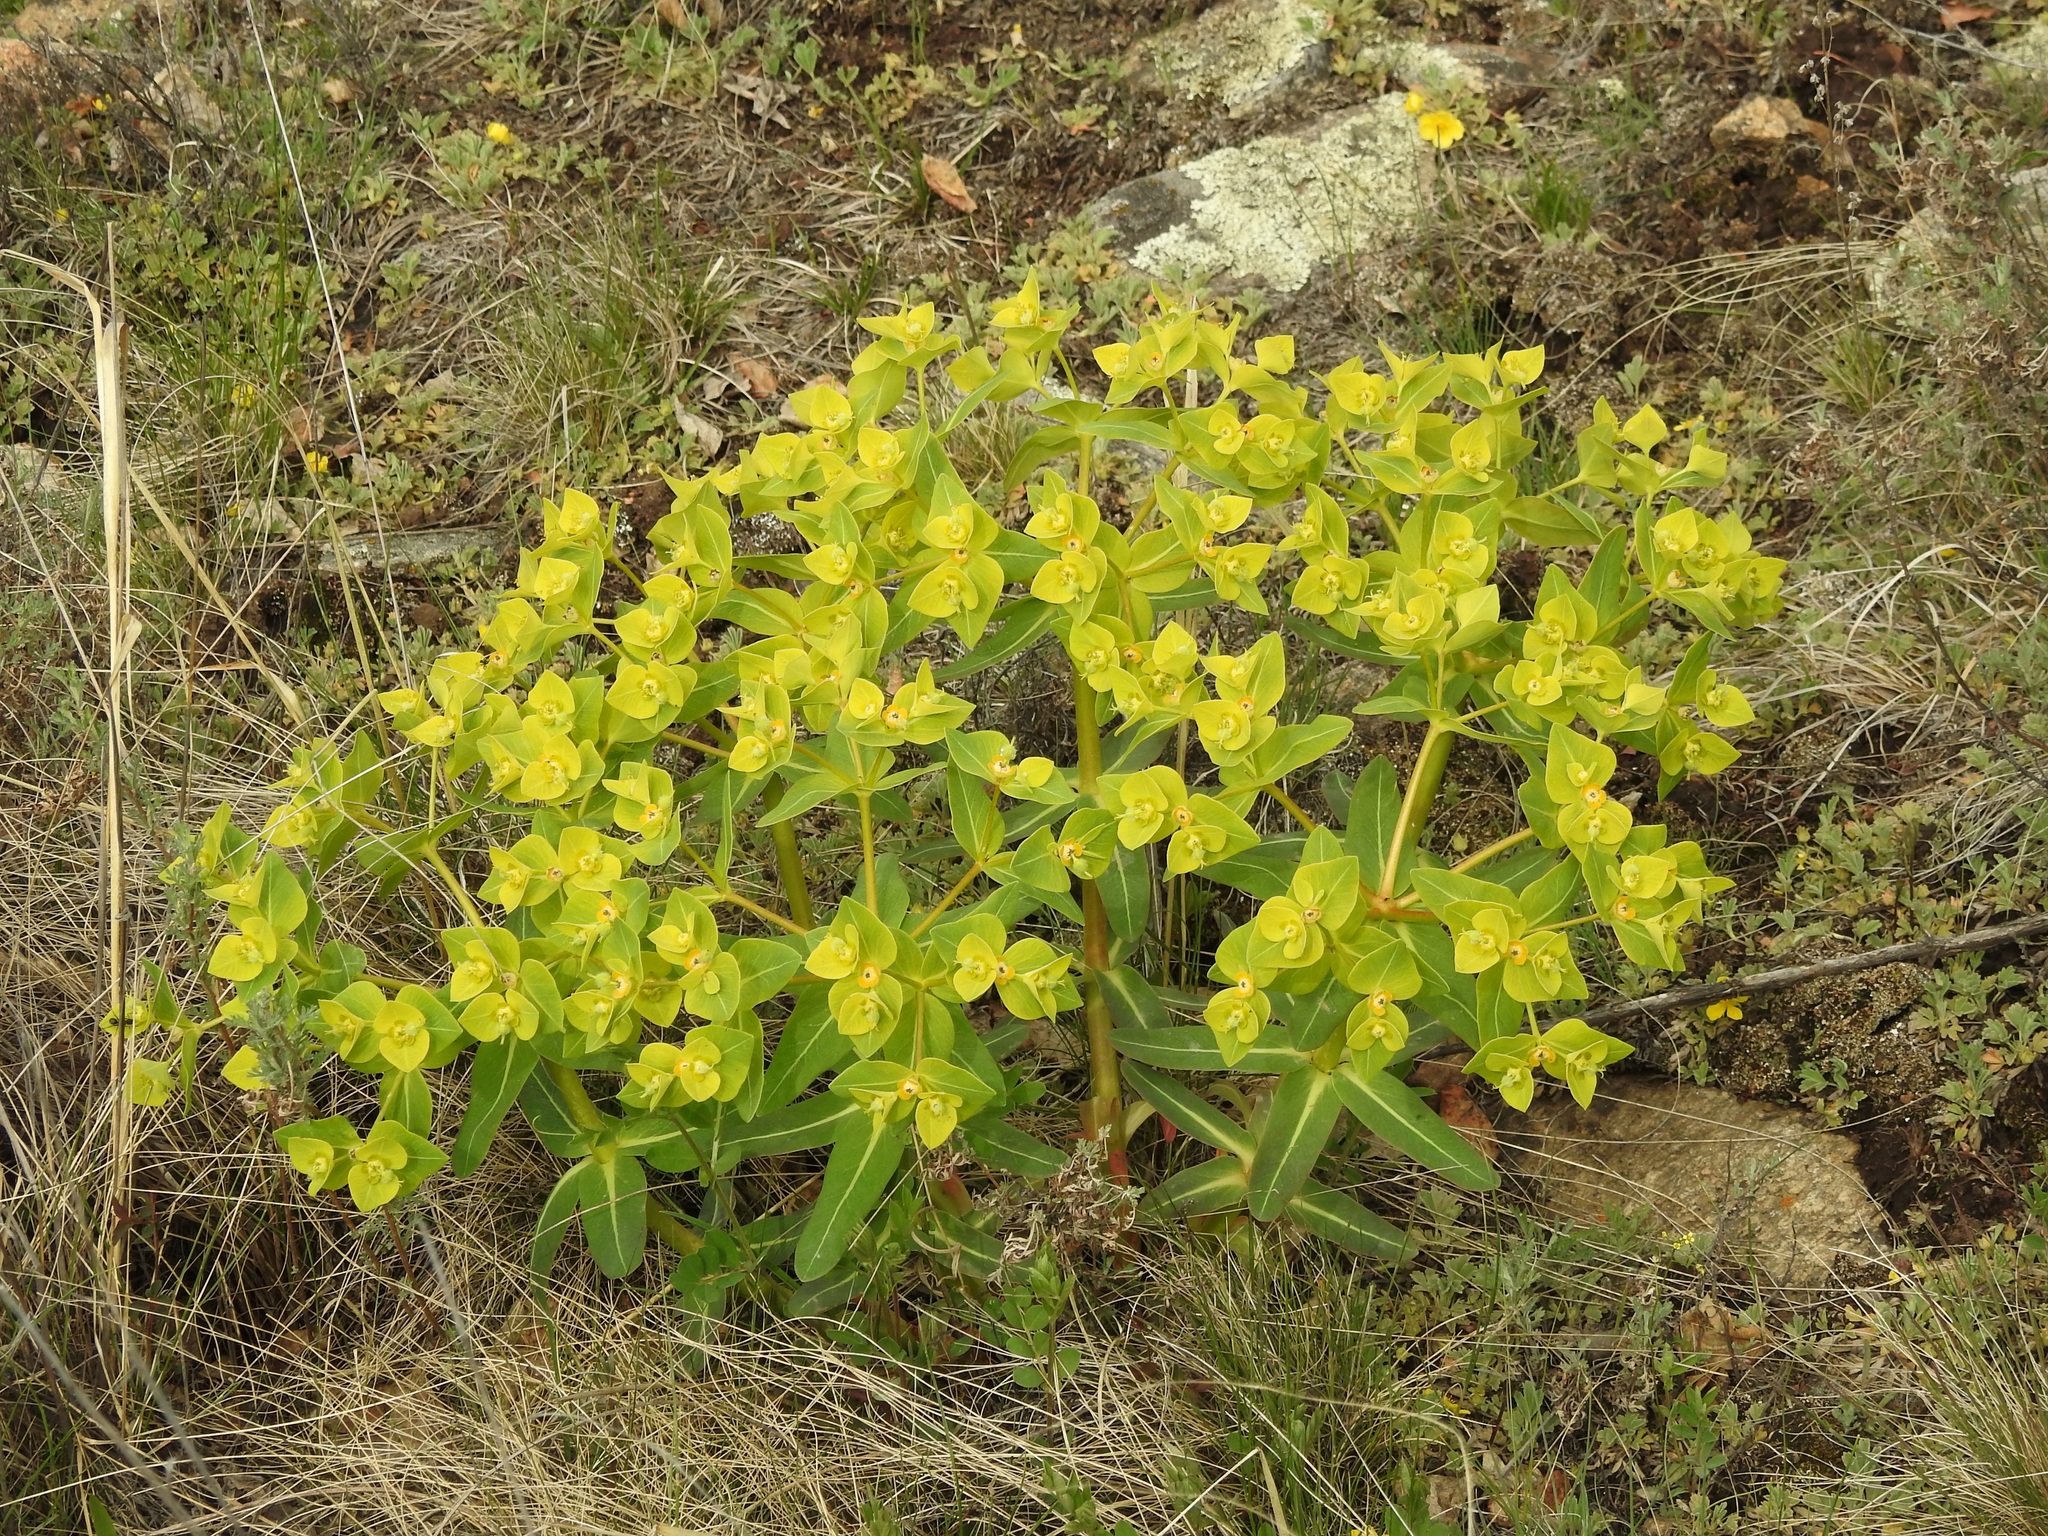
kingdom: Plantae
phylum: Tracheophyta
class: Magnoliopsida
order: Malpighiales
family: Euphorbiaceae
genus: Euphorbia
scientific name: Euphorbia fischeriana
